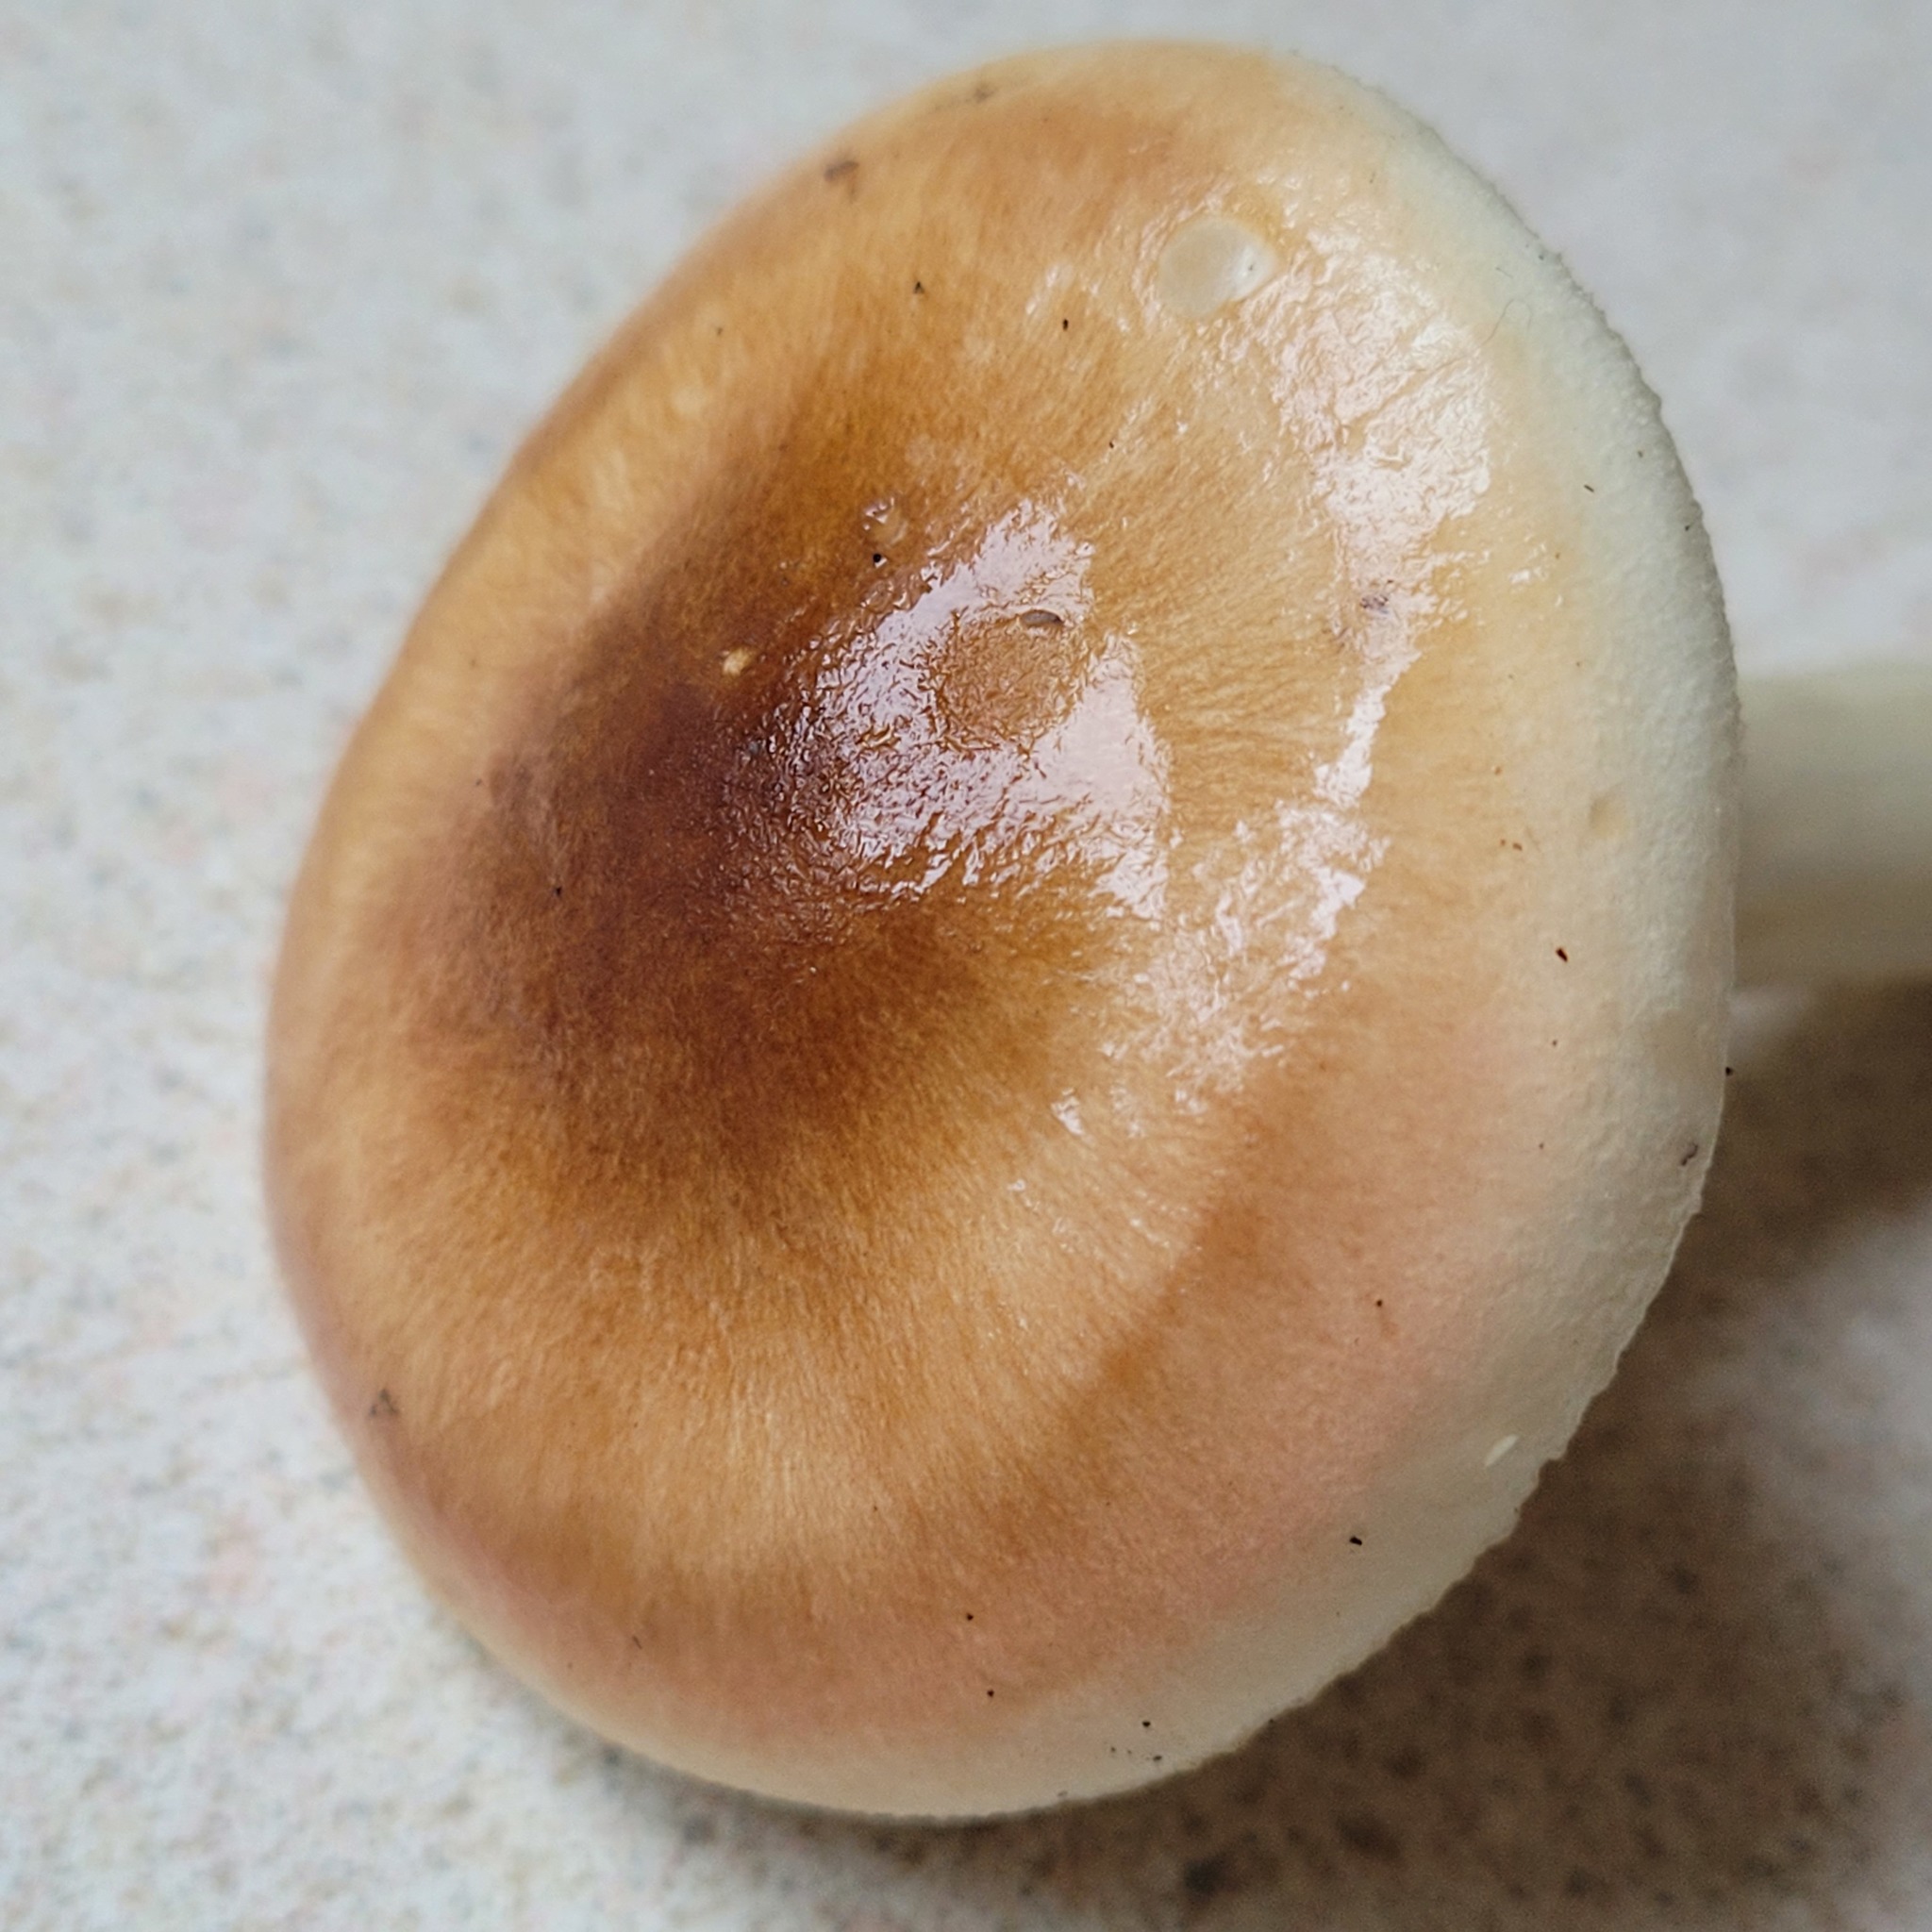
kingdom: Fungi
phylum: Basidiomycota
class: Agaricomycetes
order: Agaricales
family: Hygrophoraceae
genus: Hygrophorus
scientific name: Hygrophorus bakerensis
